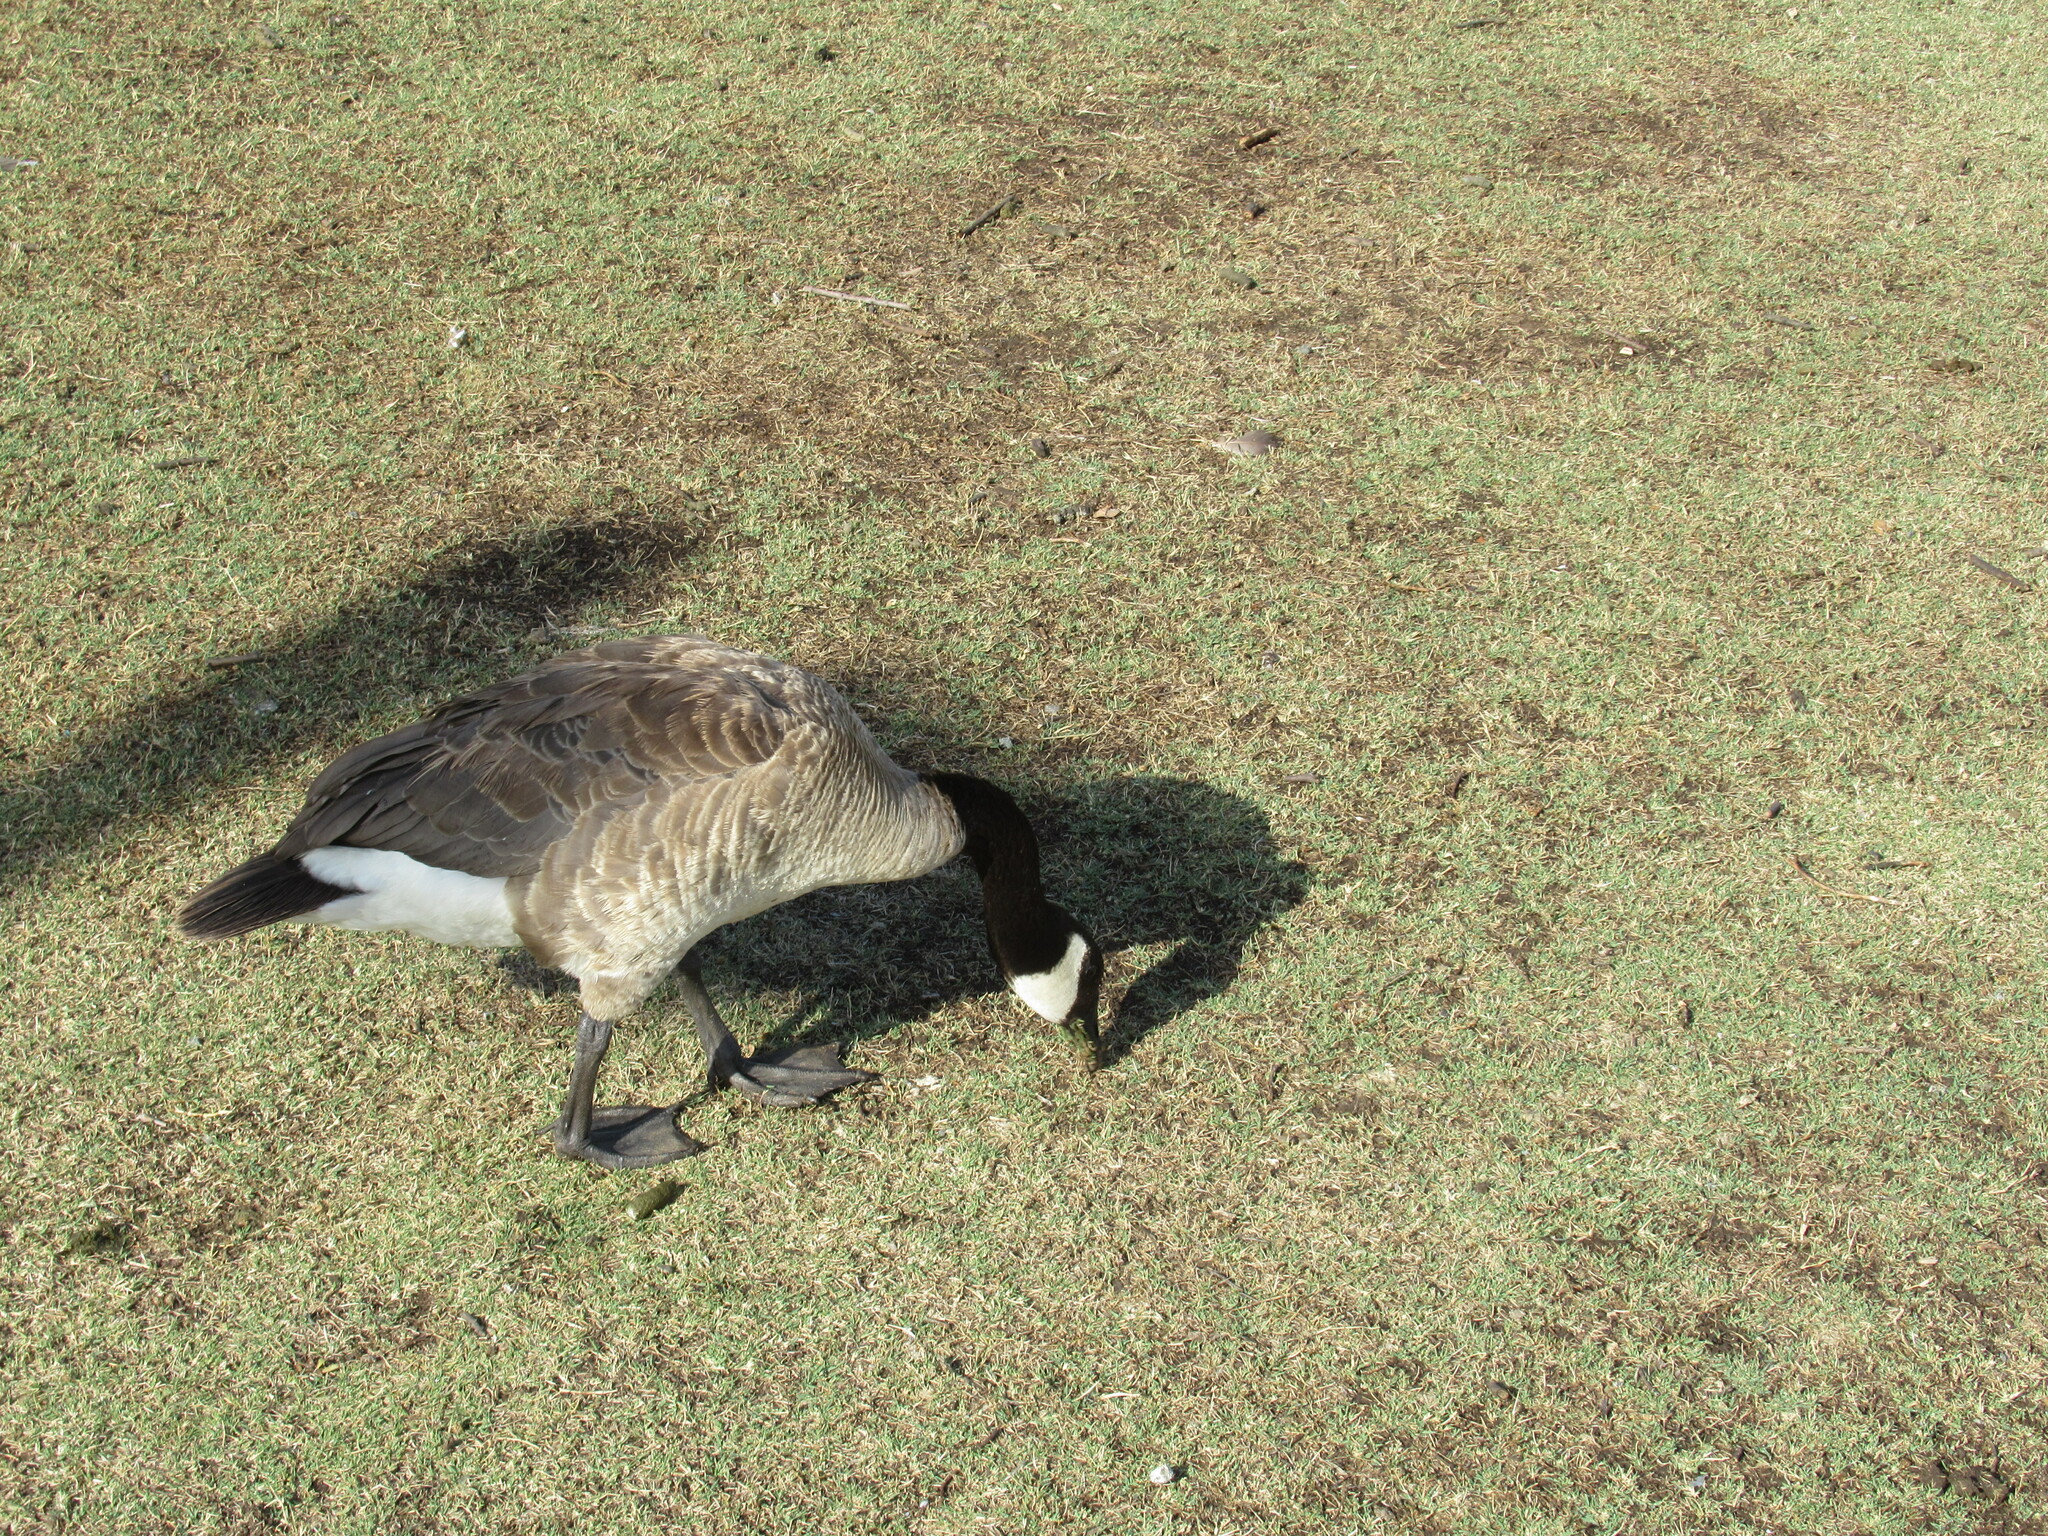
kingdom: Animalia
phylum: Chordata
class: Aves
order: Anseriformes
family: Anatidae
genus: Branta
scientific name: Branta canadensis
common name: Canada goose
